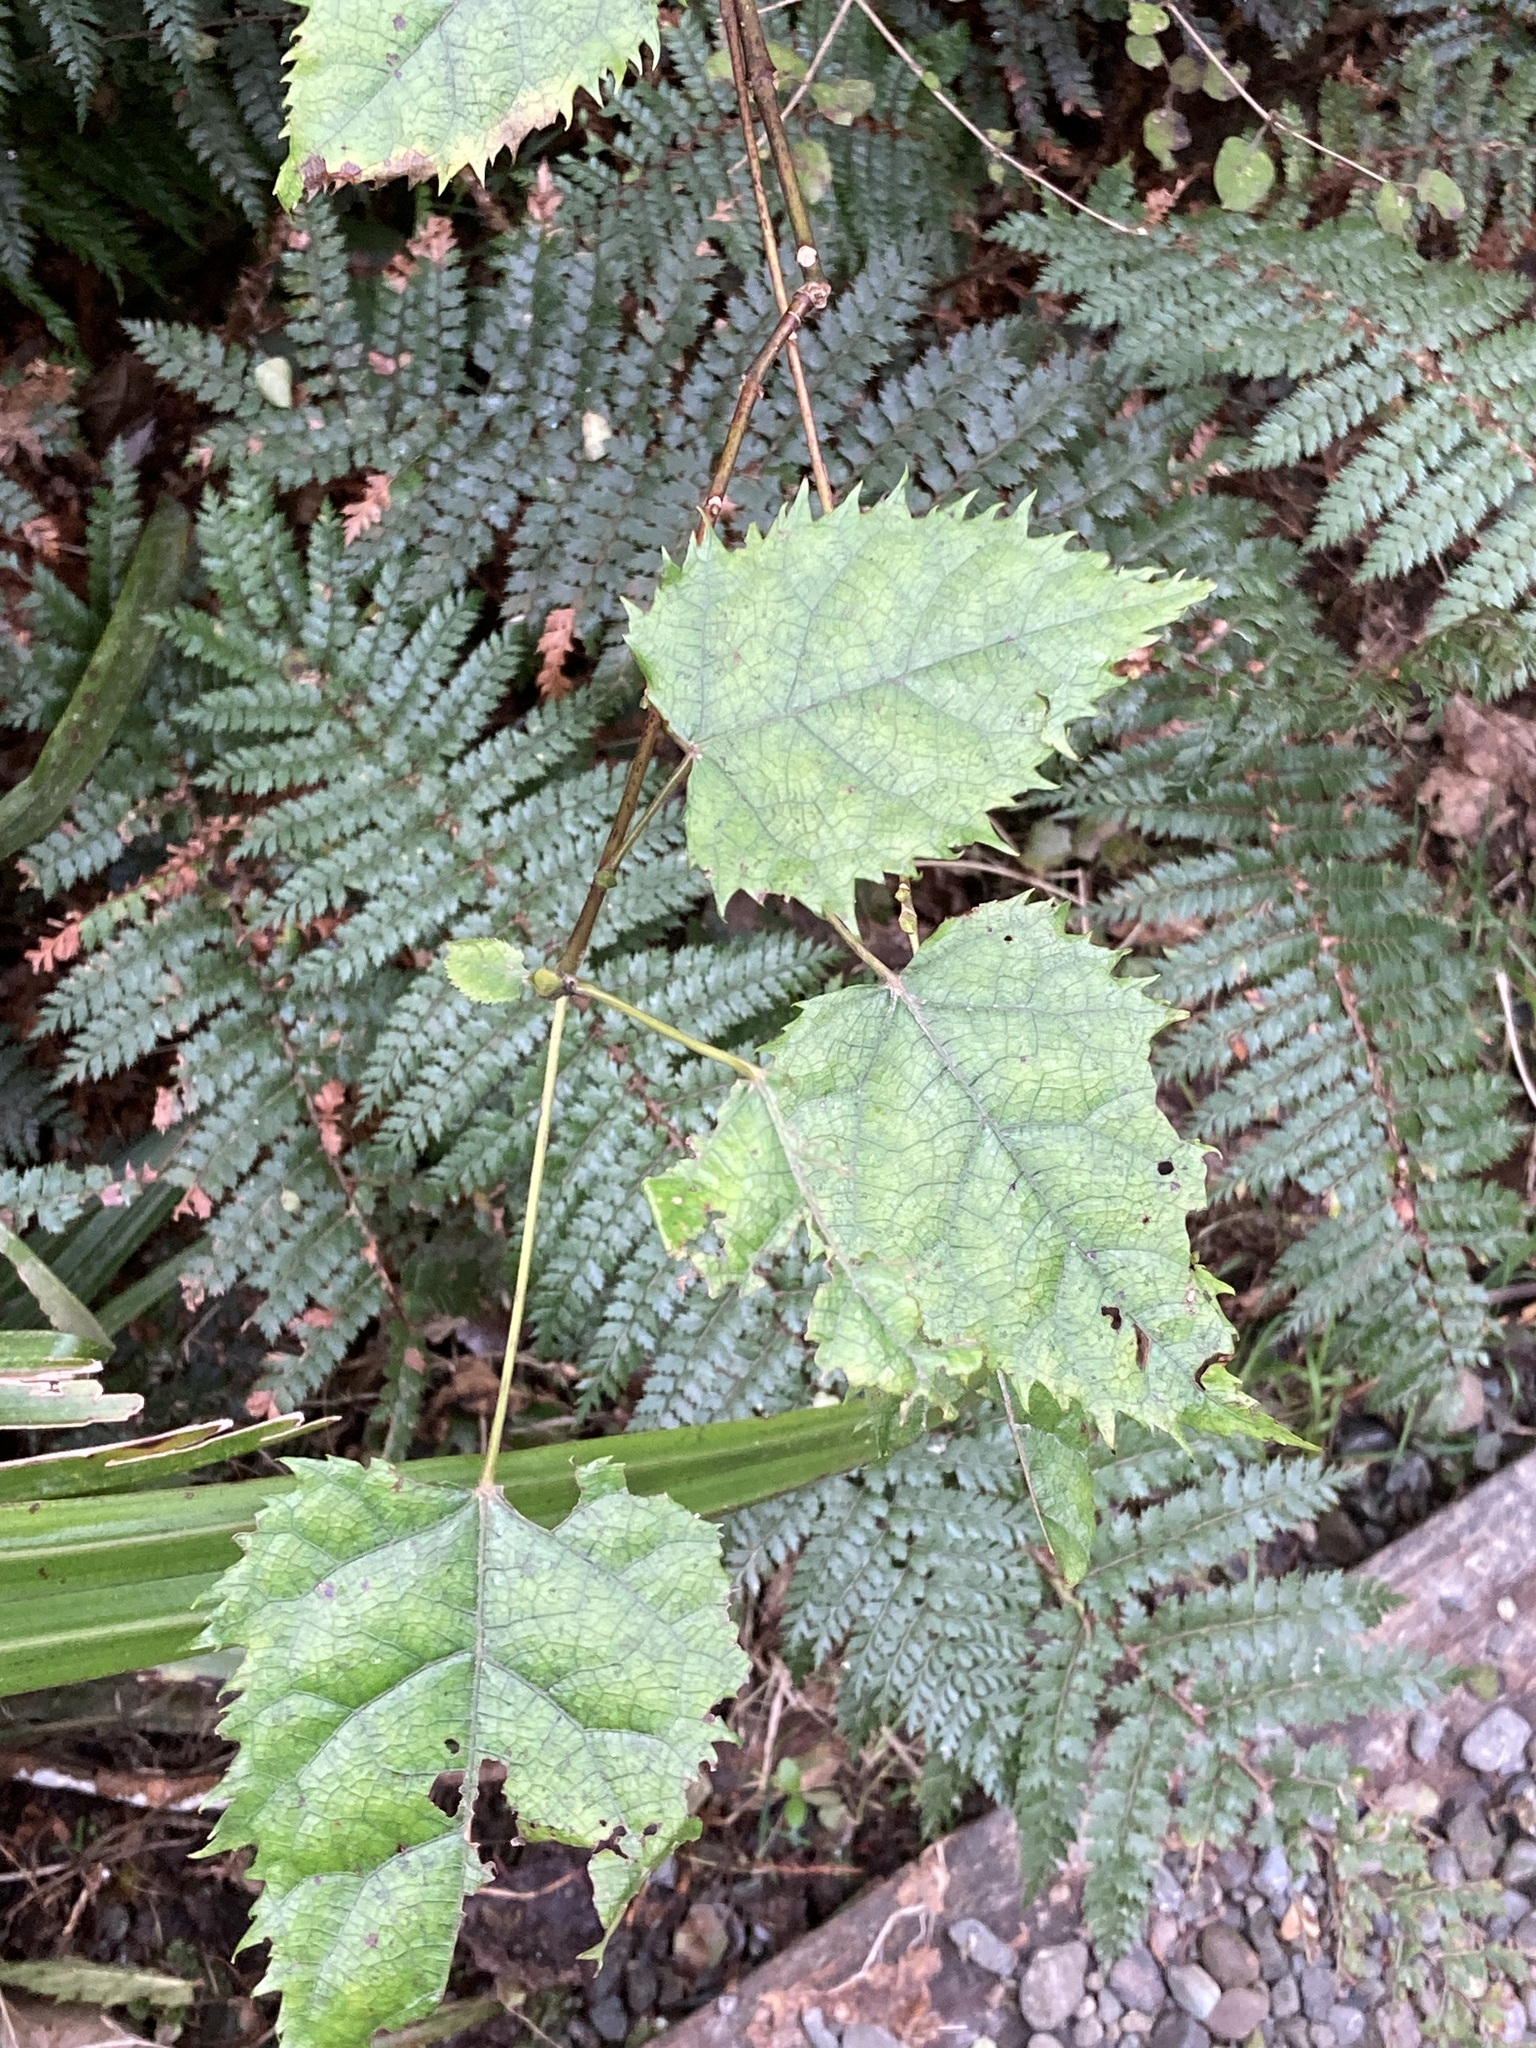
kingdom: Plantae
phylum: Tracheophyta
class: Magnoliopsida
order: Oxalidales
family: Elaeocarpaceae
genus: Aristotelia
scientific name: Aristotelia serrata
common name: New zealand wineberry
